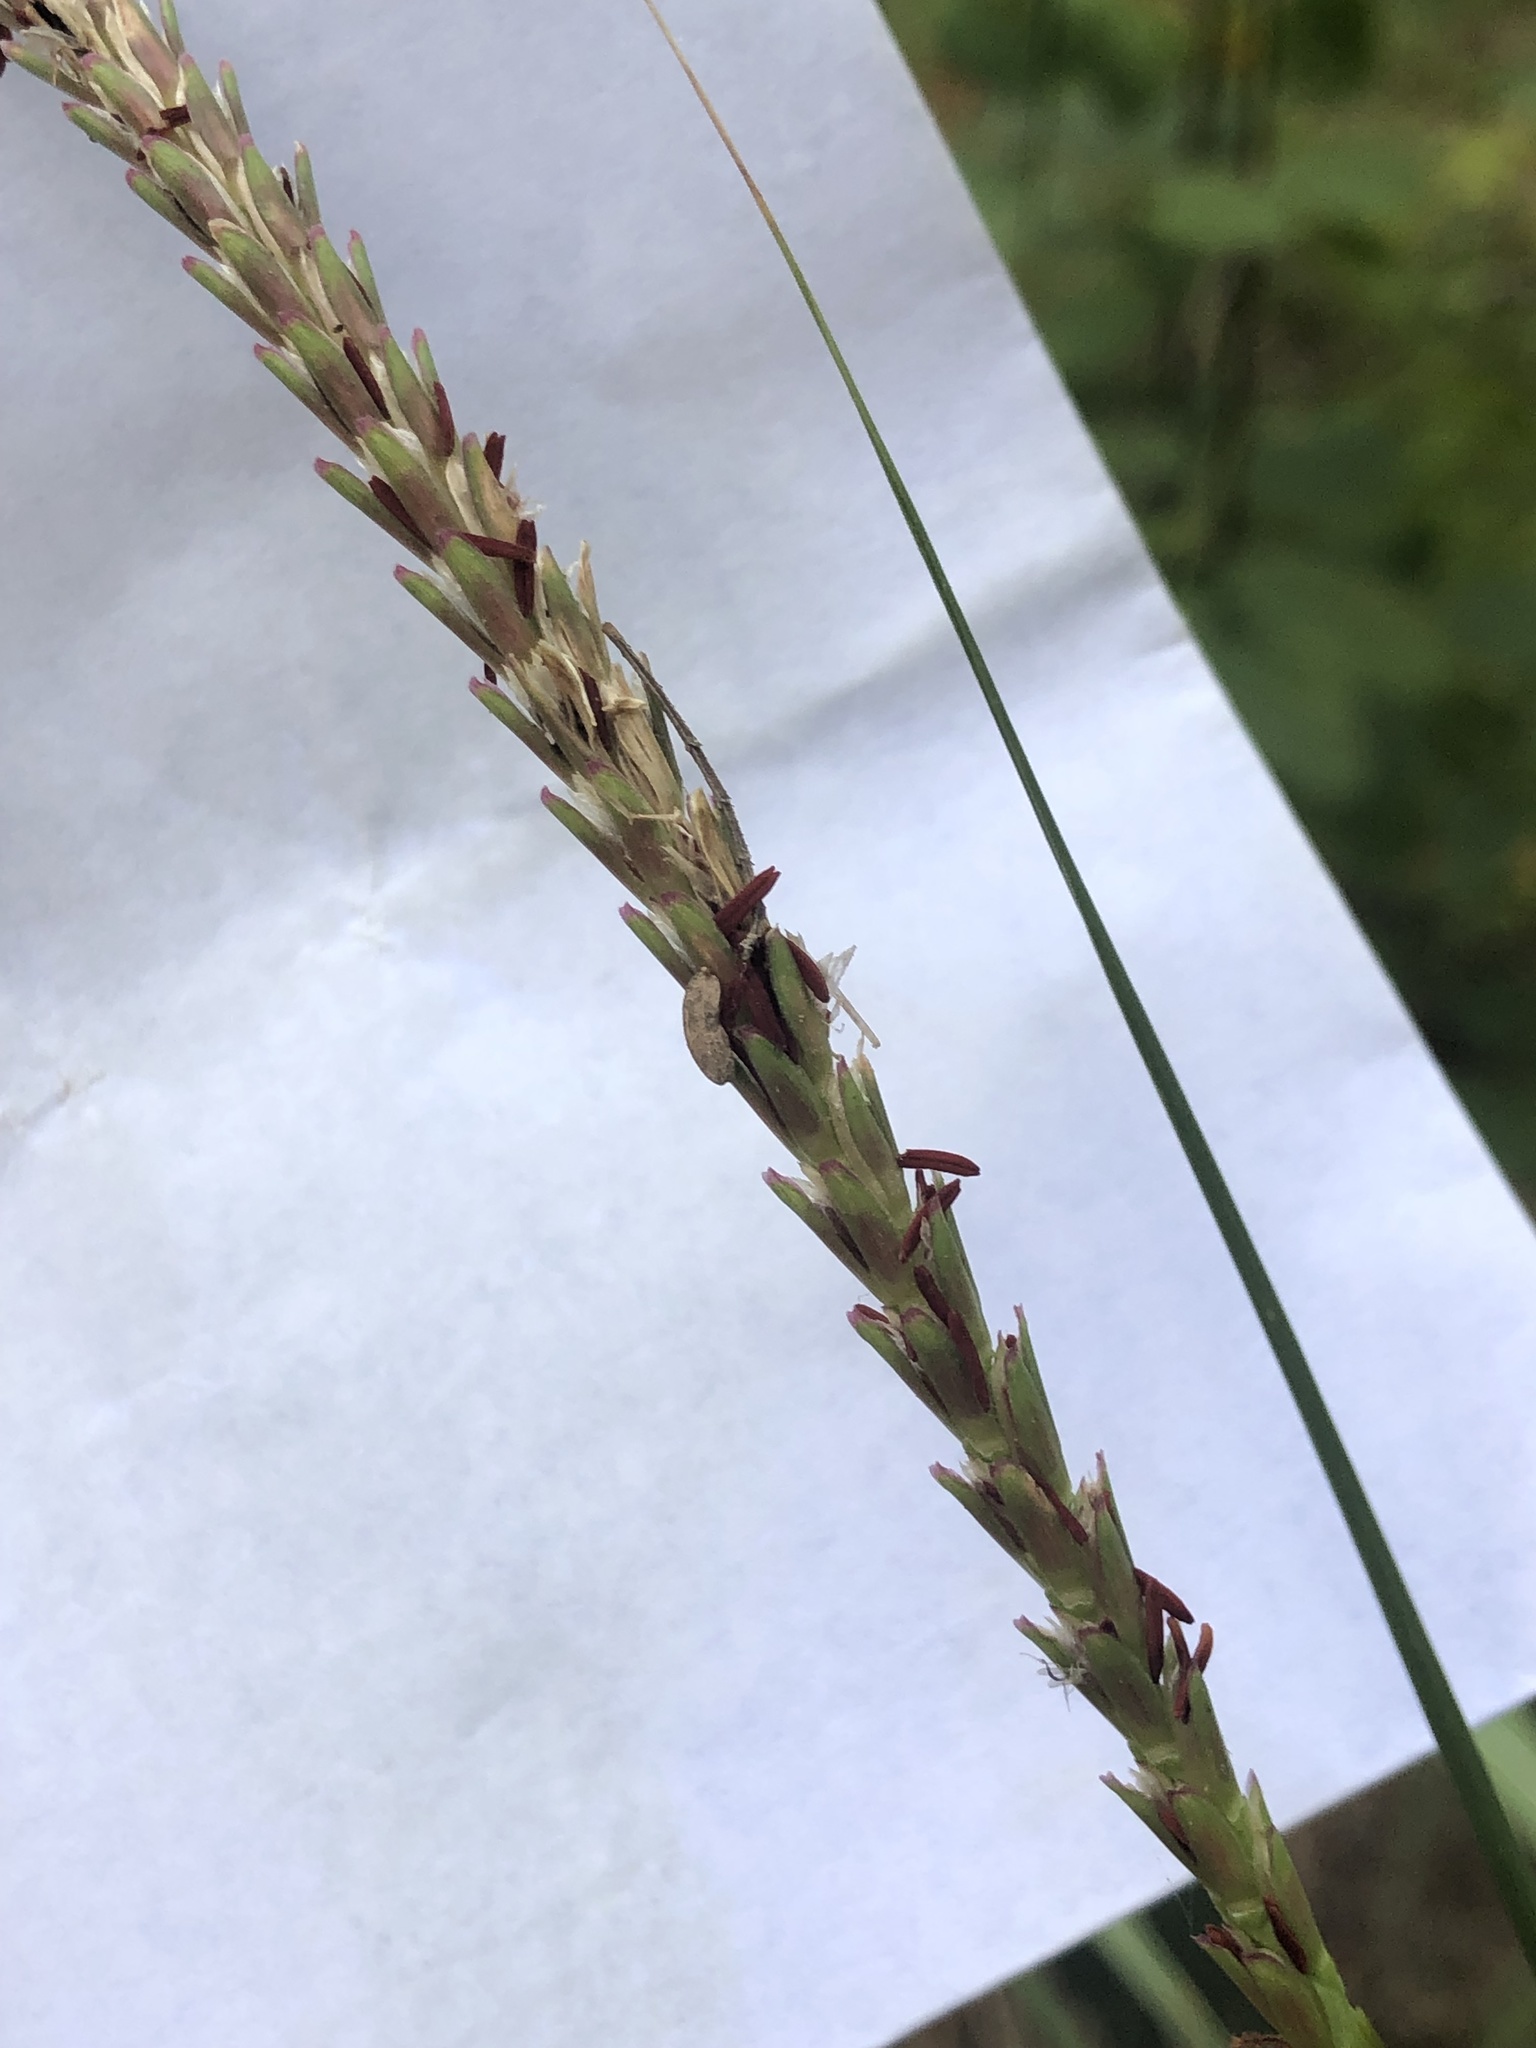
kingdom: Plantae
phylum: Tracheophyta
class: Liliopsida
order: Poales
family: Poaceae
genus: Tripsacum
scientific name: Tripsacum dactyloides
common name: Buffalo-grass
